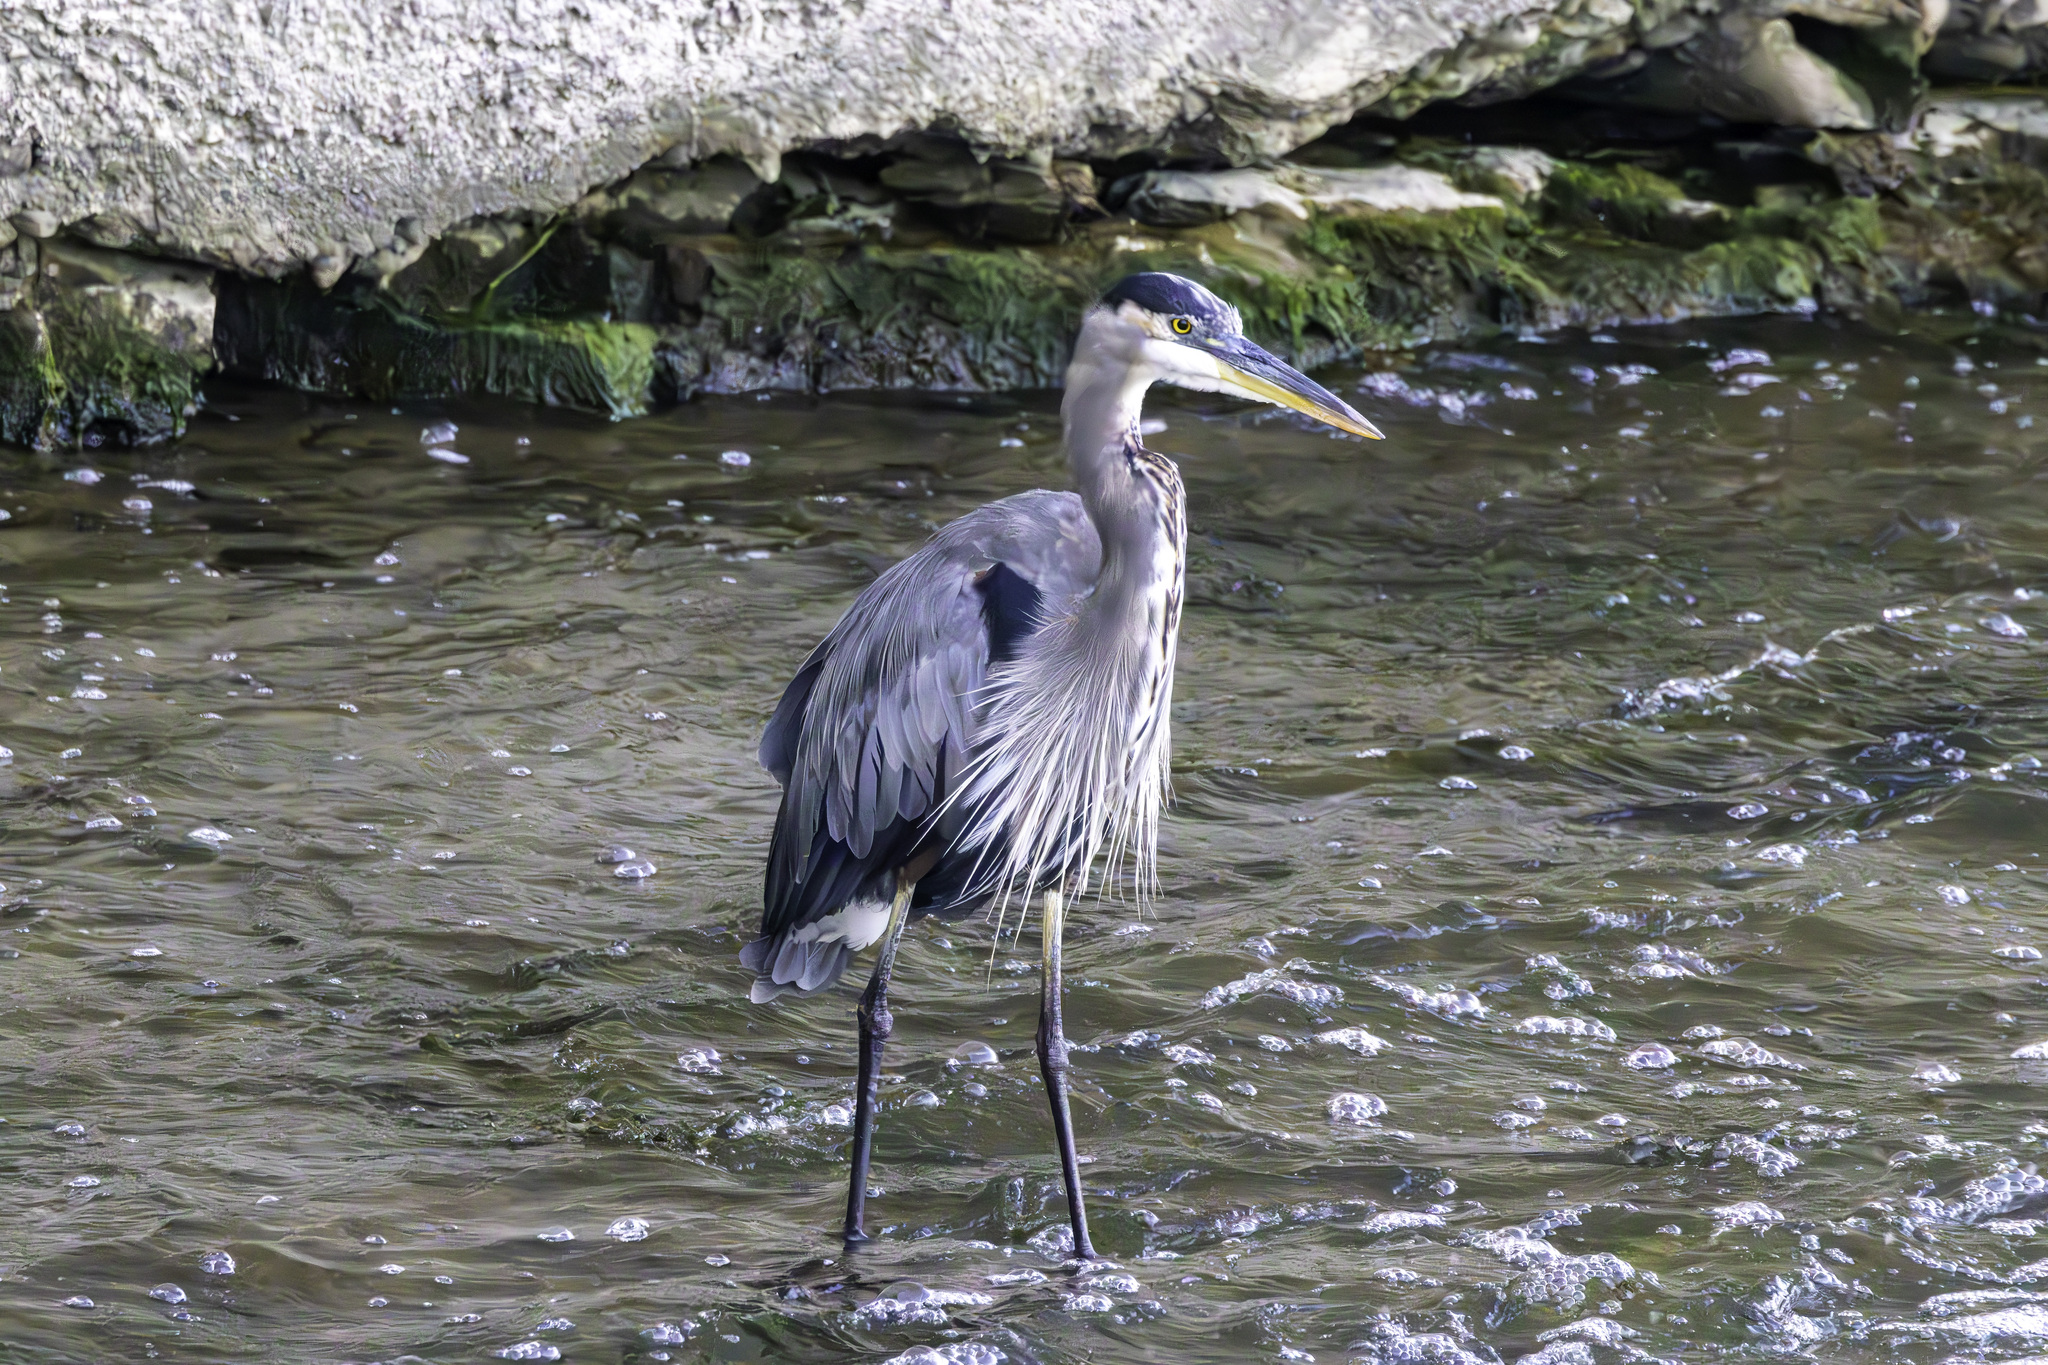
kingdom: Animalia
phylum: Chordata
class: Aves
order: Pelecaniformes
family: Ardeidae
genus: Ardea
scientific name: Ardea herodias
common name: Great blue heron
